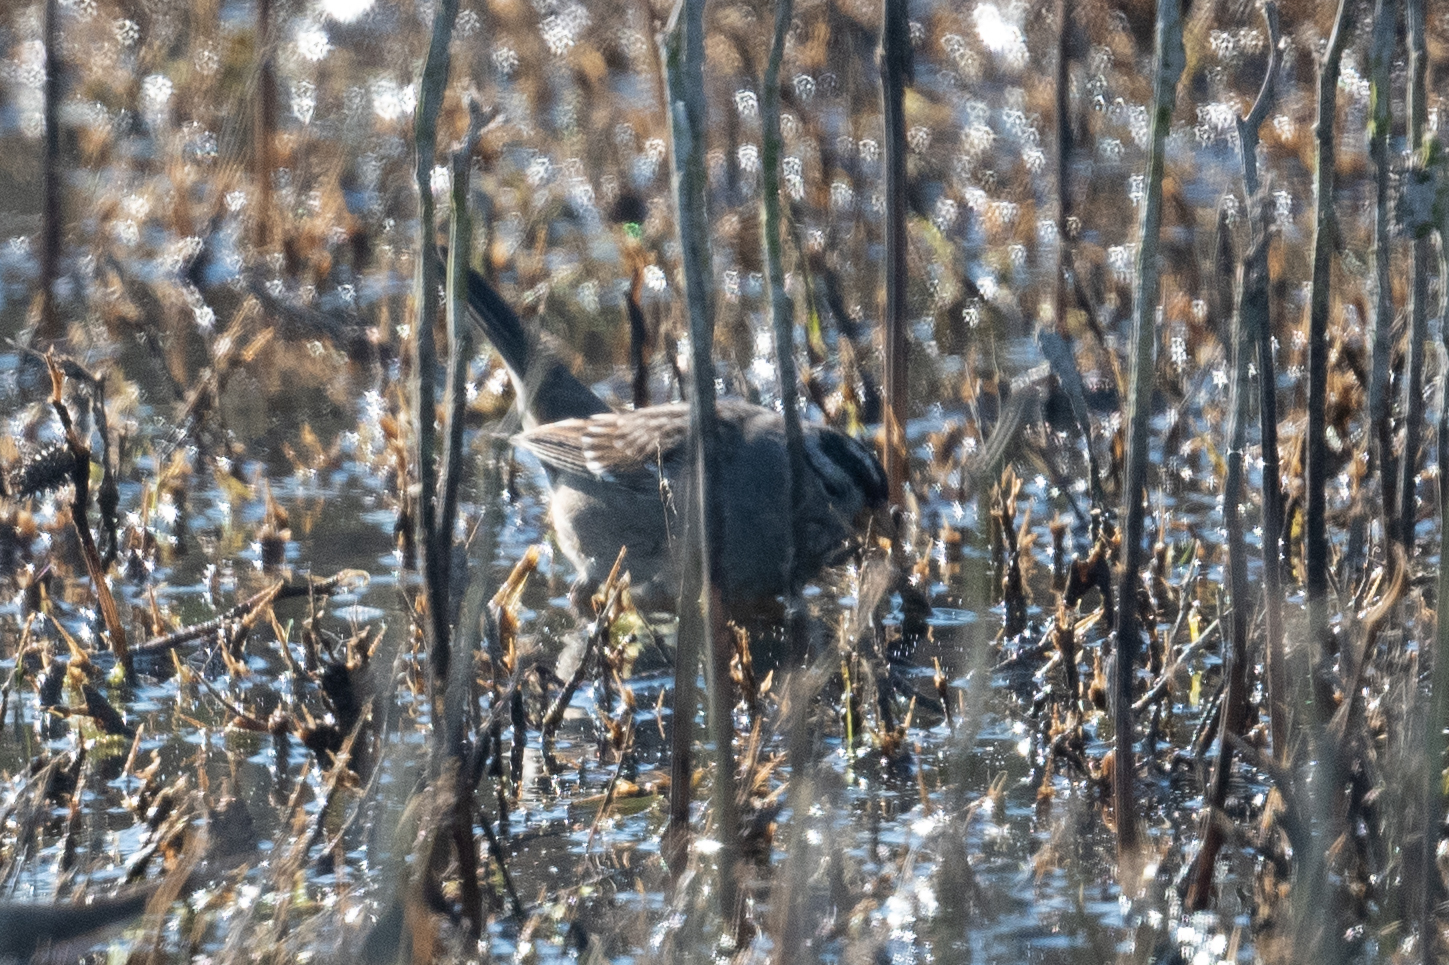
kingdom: Animalia
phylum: Chordata
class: Aves
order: Passeriformes
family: Passerellidae
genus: Zonotrichia
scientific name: Zonotrichia leucophrys
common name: White-crowned sparrow
